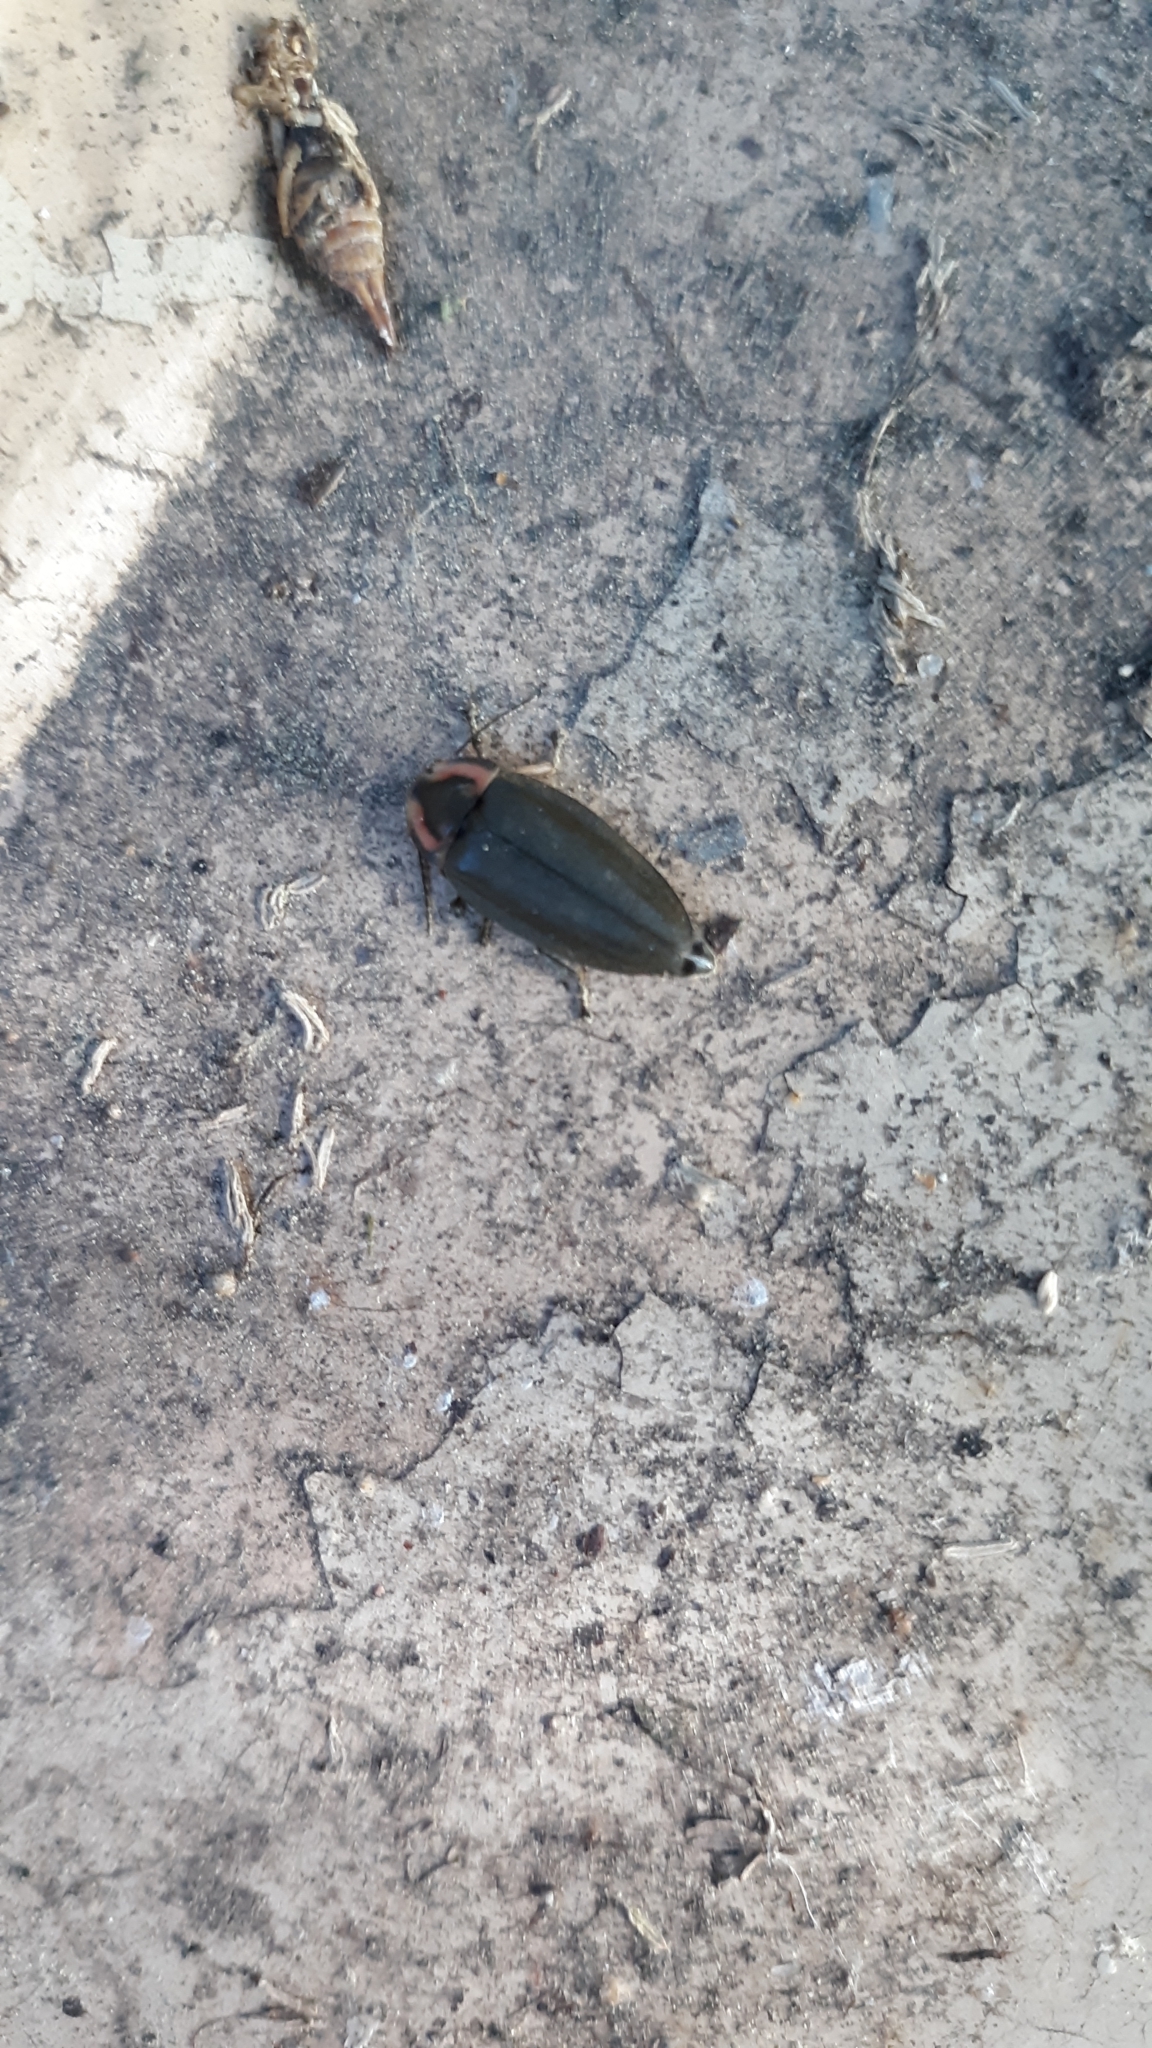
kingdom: Animalia
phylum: Arthropoda
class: Insecta
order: Coleoptera
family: Lampyridae
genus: Photinus
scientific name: Photinus corrusca
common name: Winter firefly
